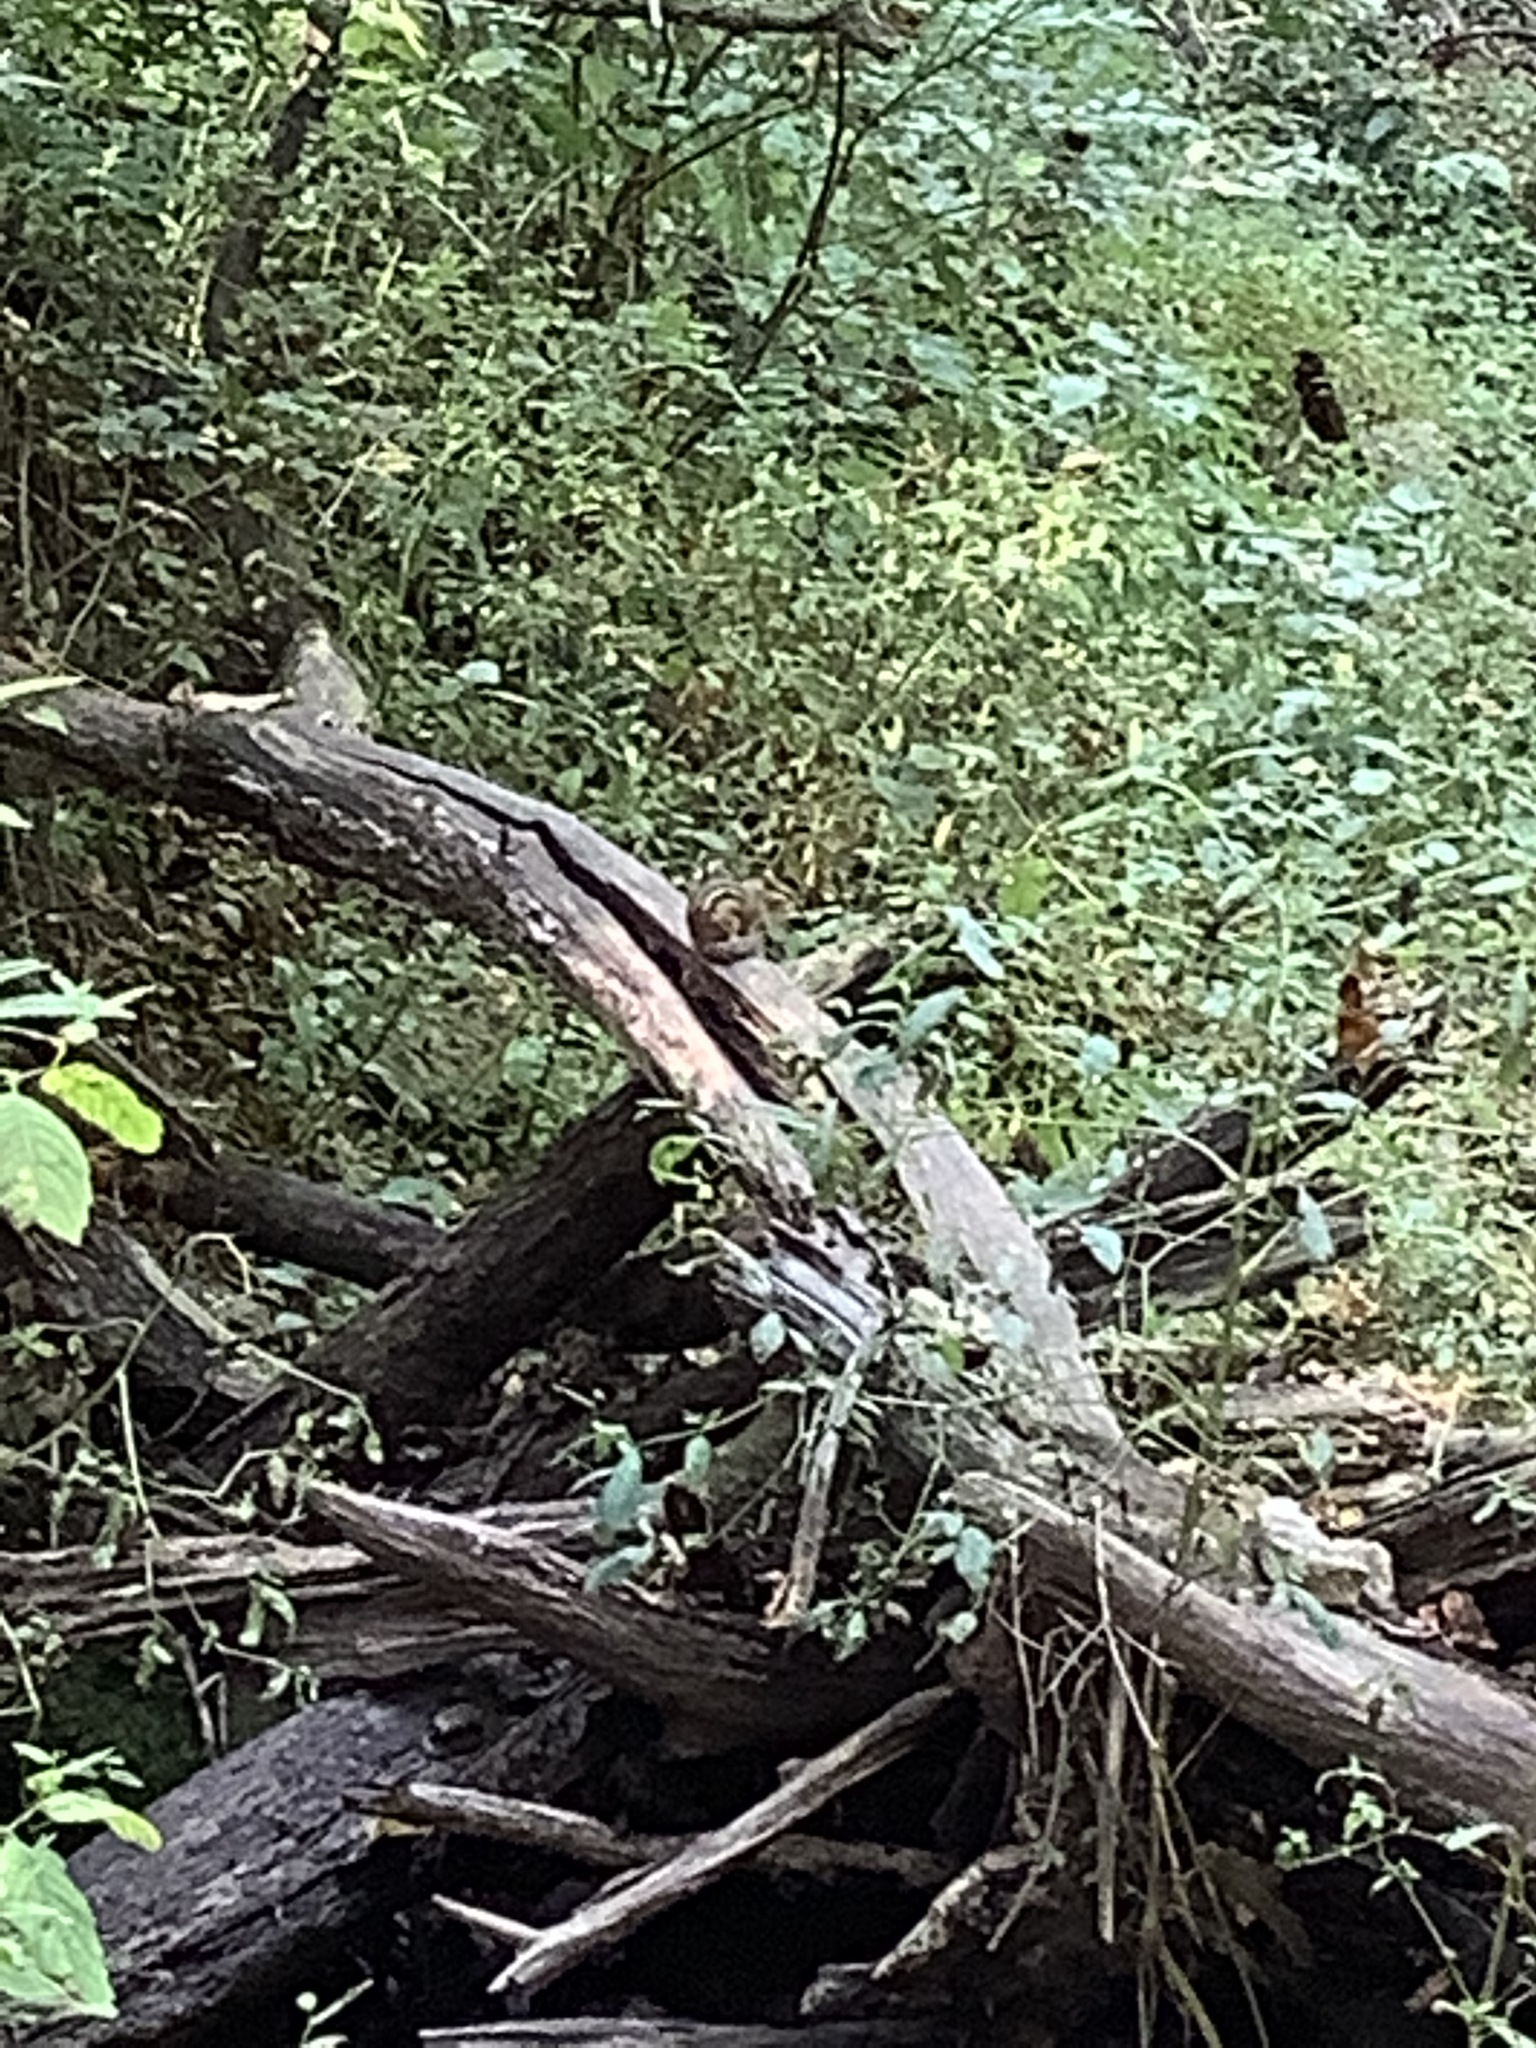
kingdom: Animalia
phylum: Chordata
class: Mammalia
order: Rodentia
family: Sciuridae
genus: Tamias
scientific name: Tamias striatus
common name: Eastern chipmunk
